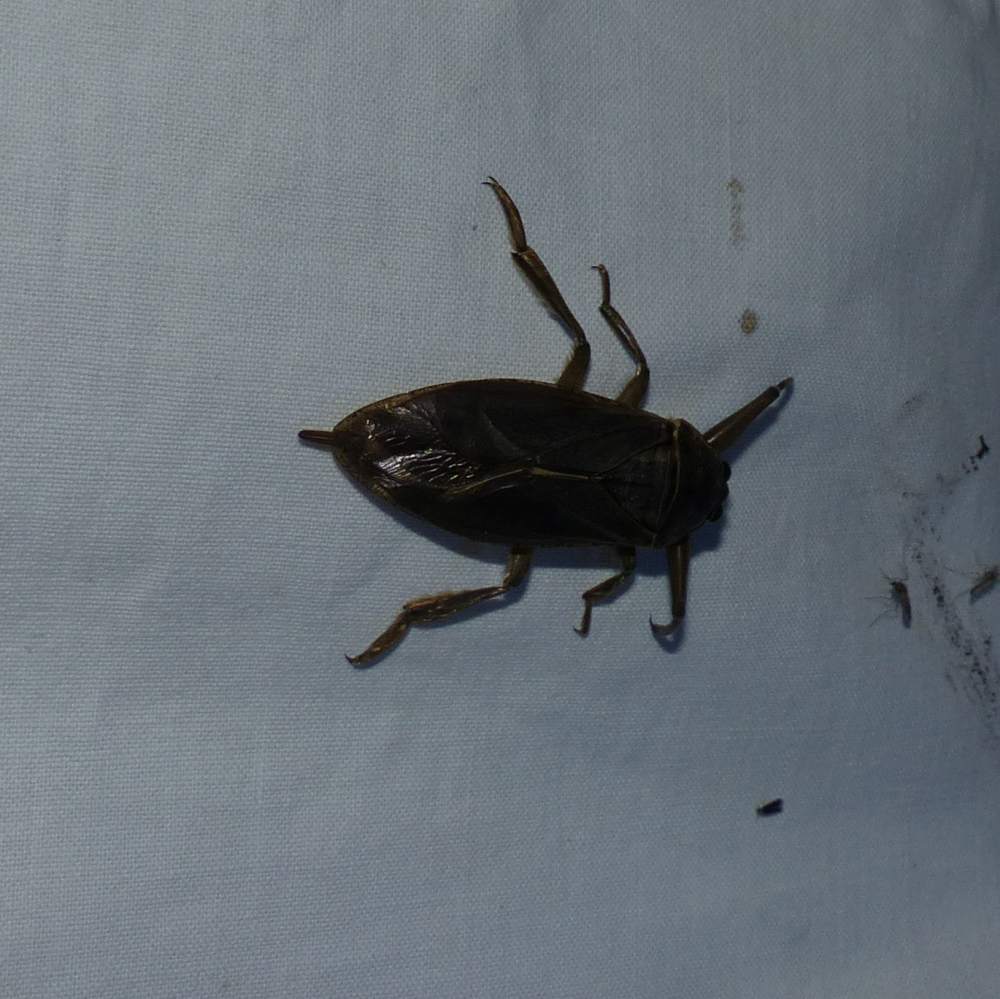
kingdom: Animalia
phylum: Arthropoda
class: Insecta
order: Hemiptera
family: Belostomatidae
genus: Lethocerus
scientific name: Lethocerus americanus
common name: Giant water bug
